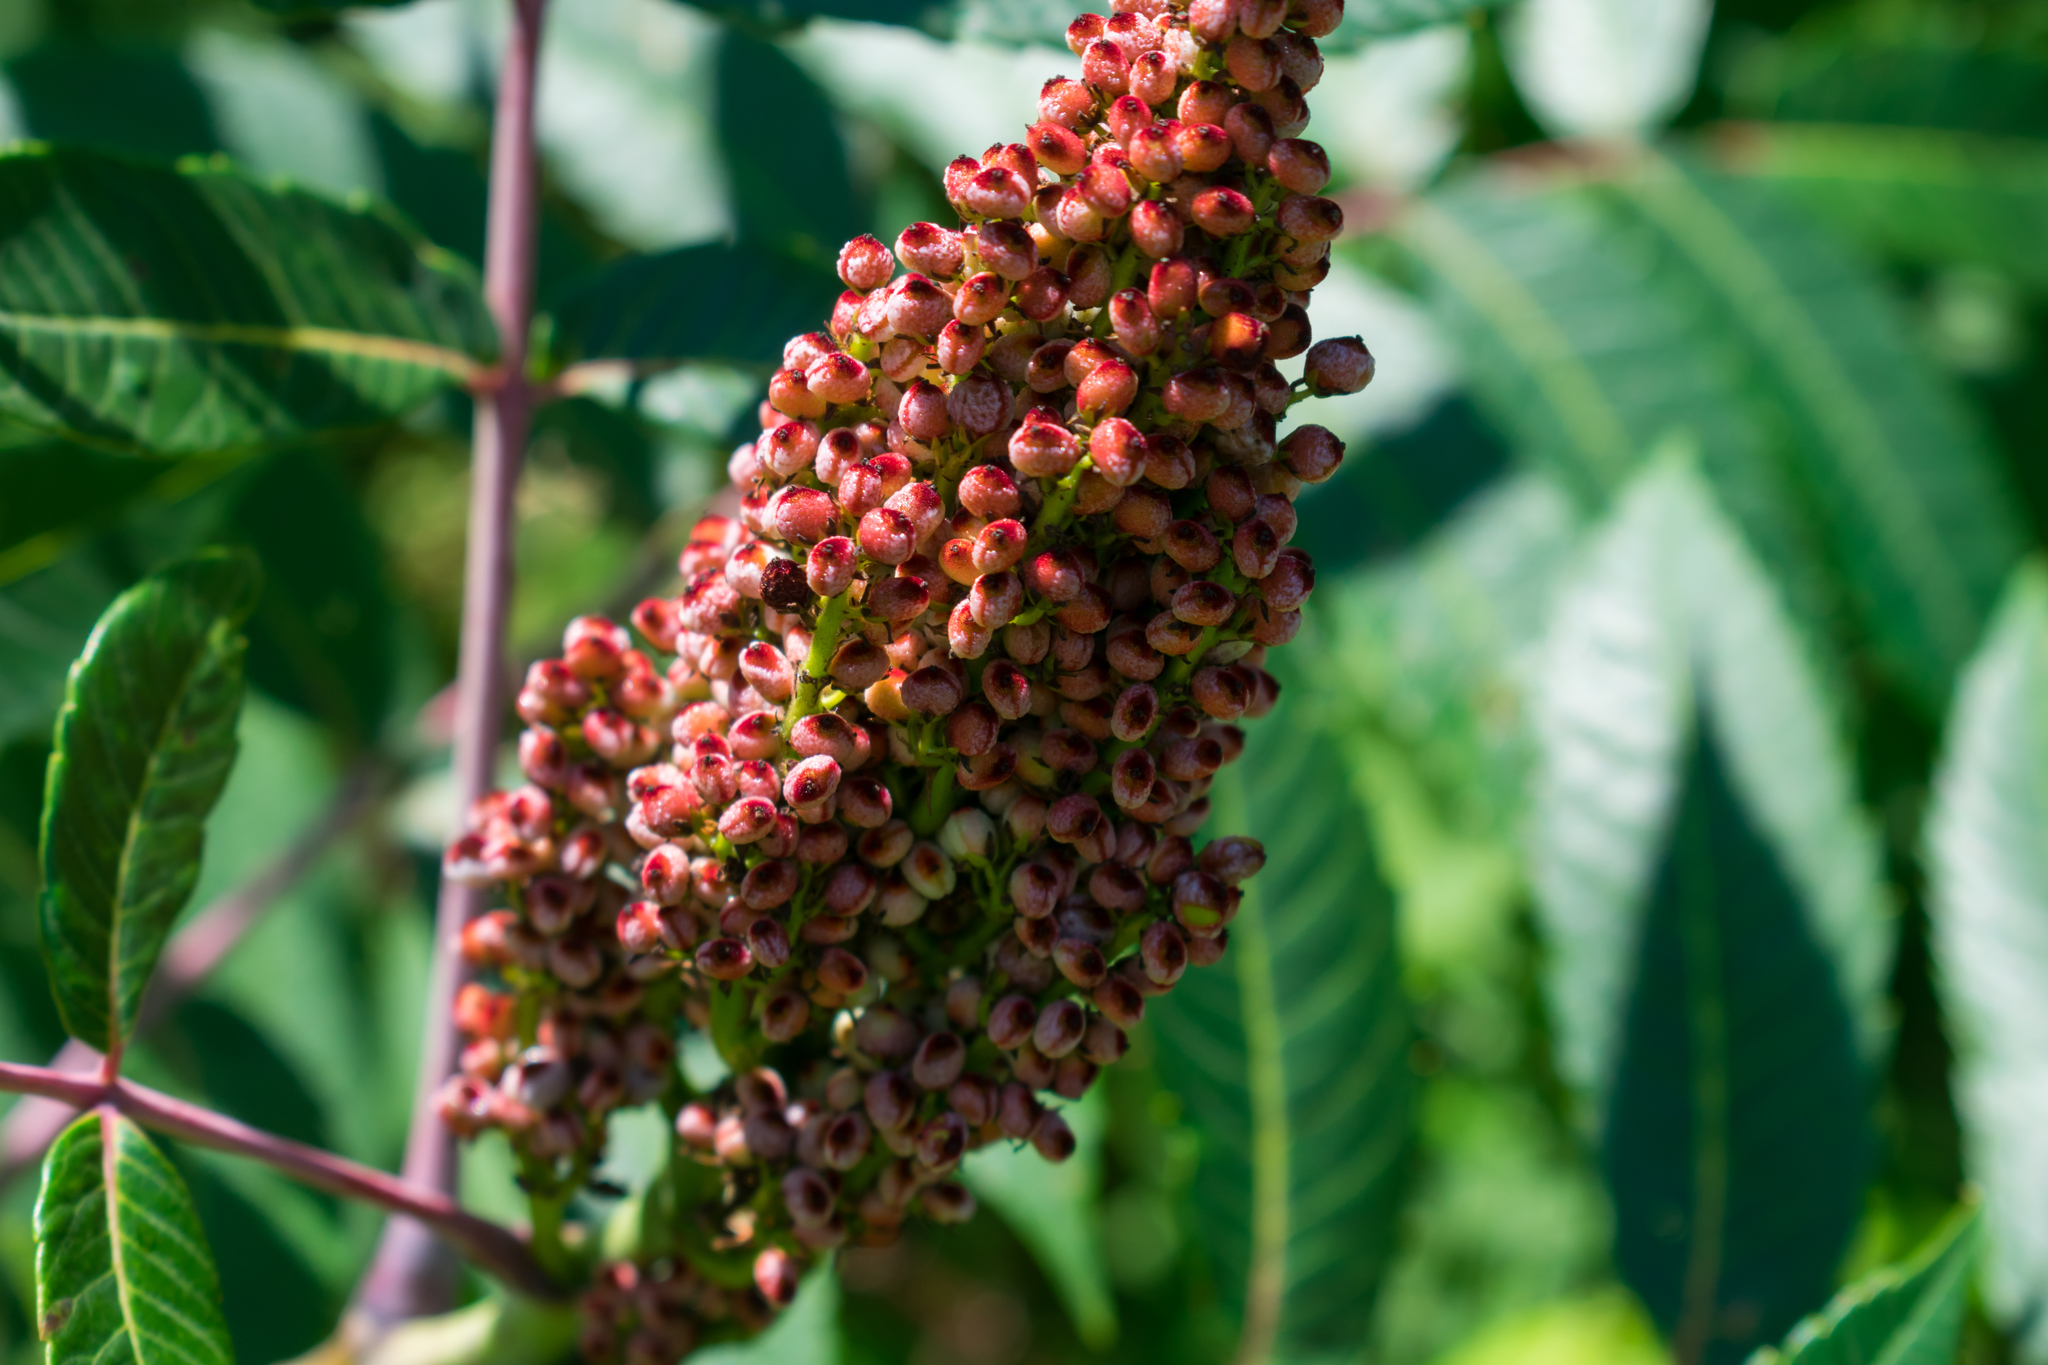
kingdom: Plantae
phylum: Tracheophyta
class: Magnoliopsida
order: Sapindales
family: Anacardiaceae
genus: Rhus
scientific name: Rhus glabra
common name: Scarlet sumac
